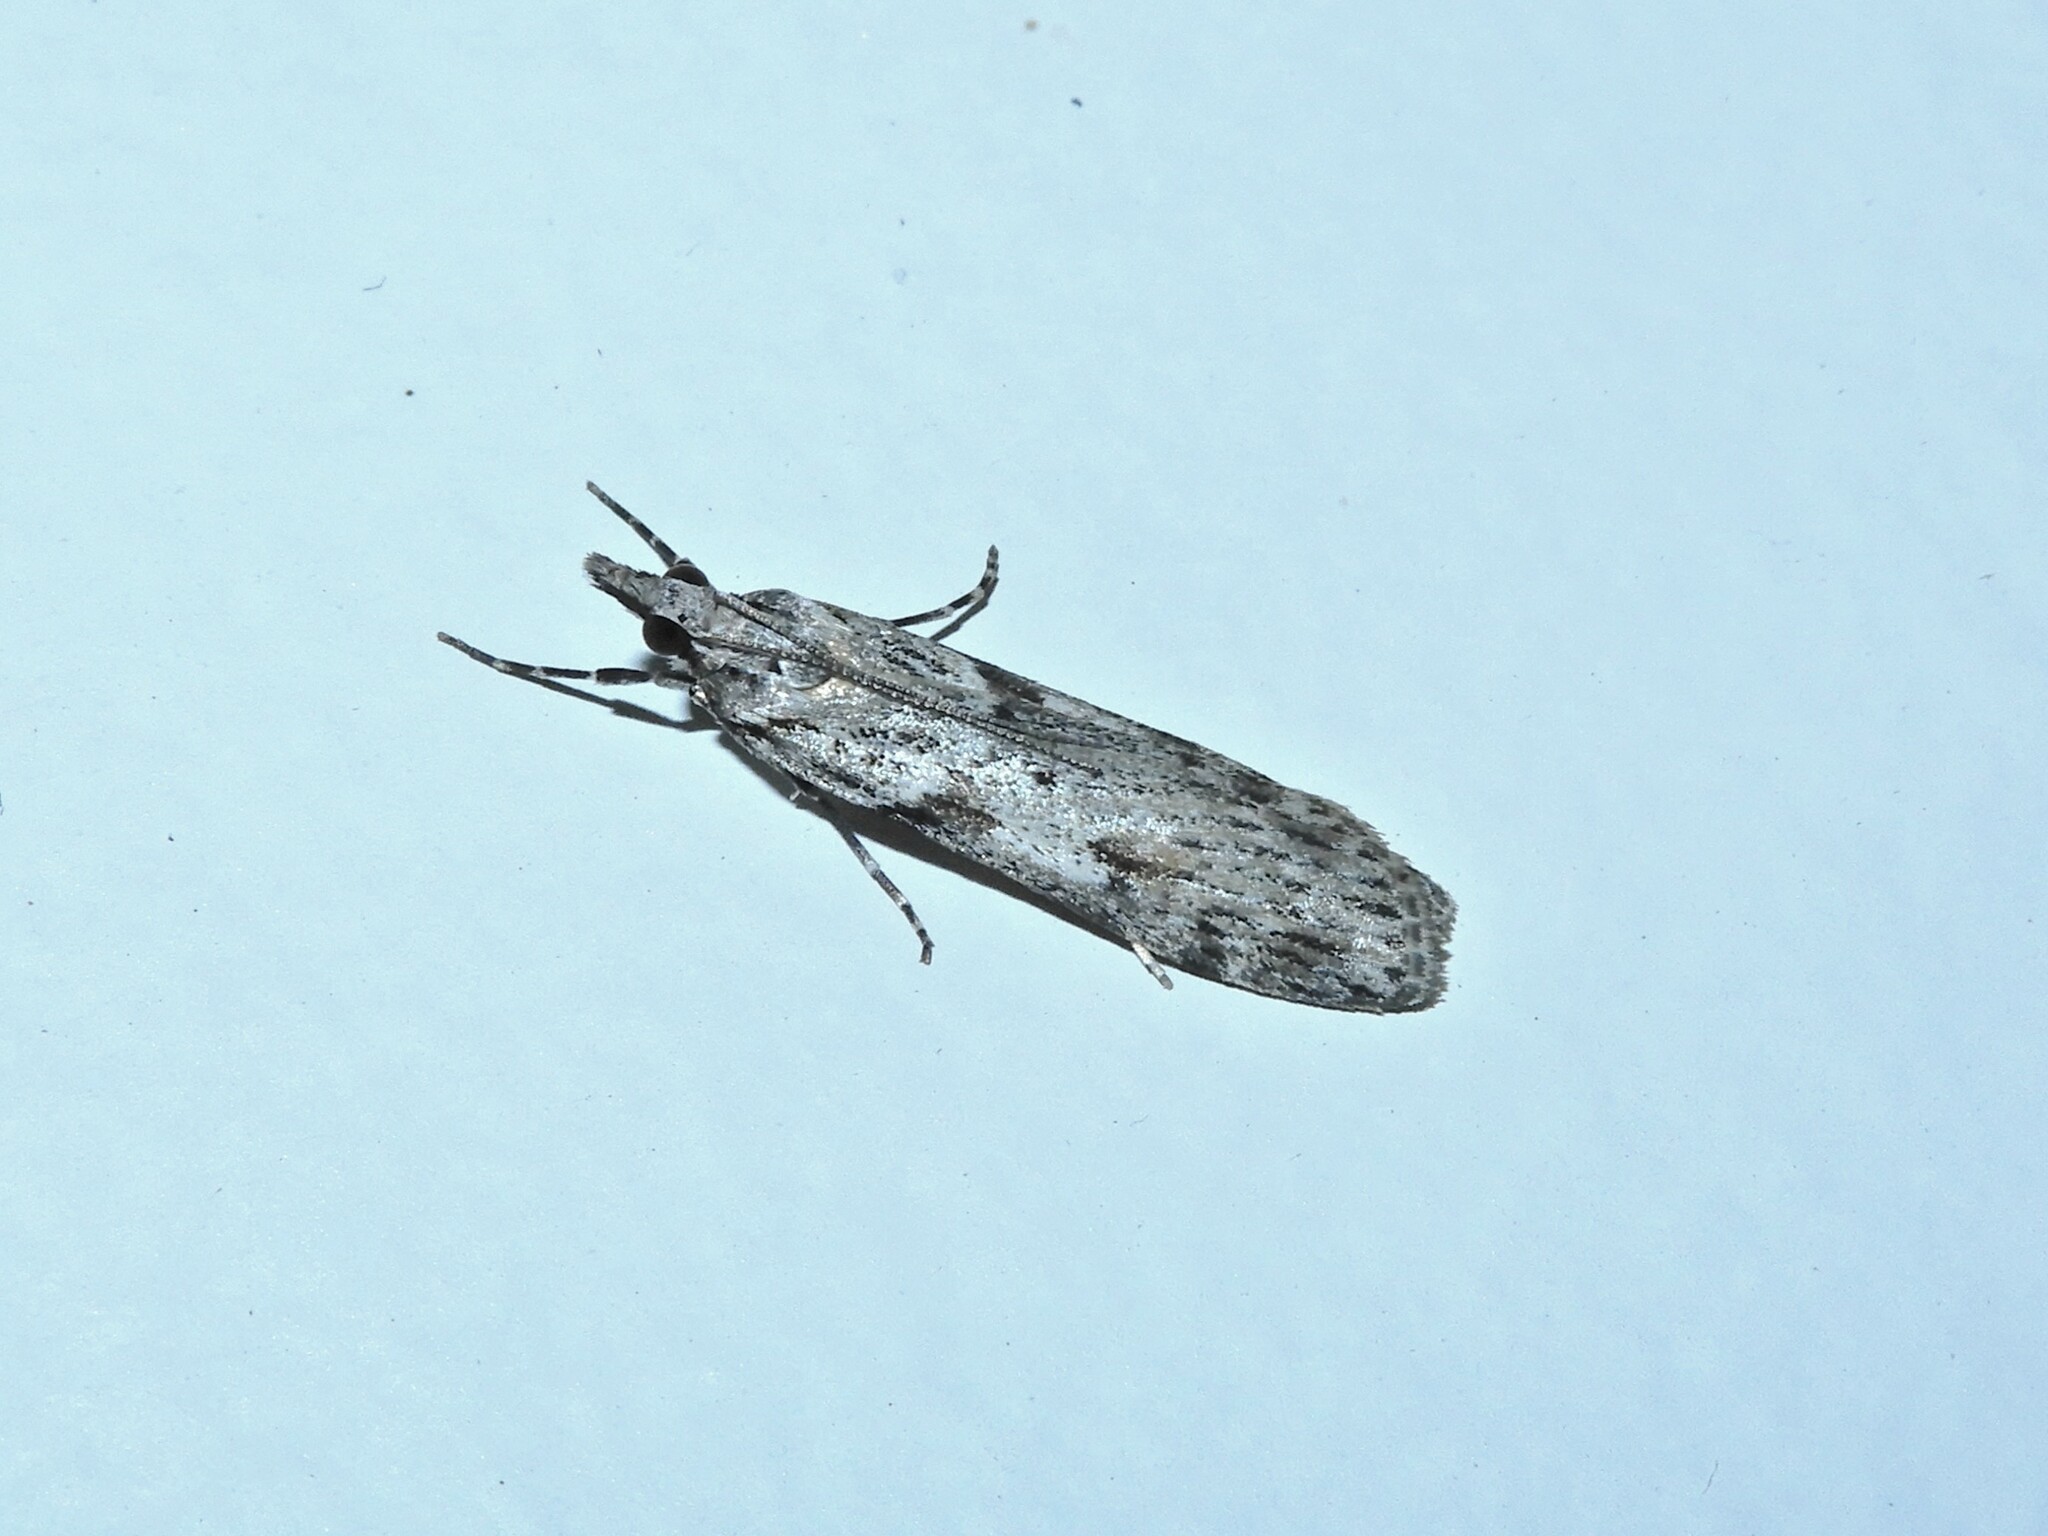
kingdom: Animalia
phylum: Arthropoda
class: Insecta
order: Lepidoptera
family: Crambidae
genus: Scoparia
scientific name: Scoparia halopis
